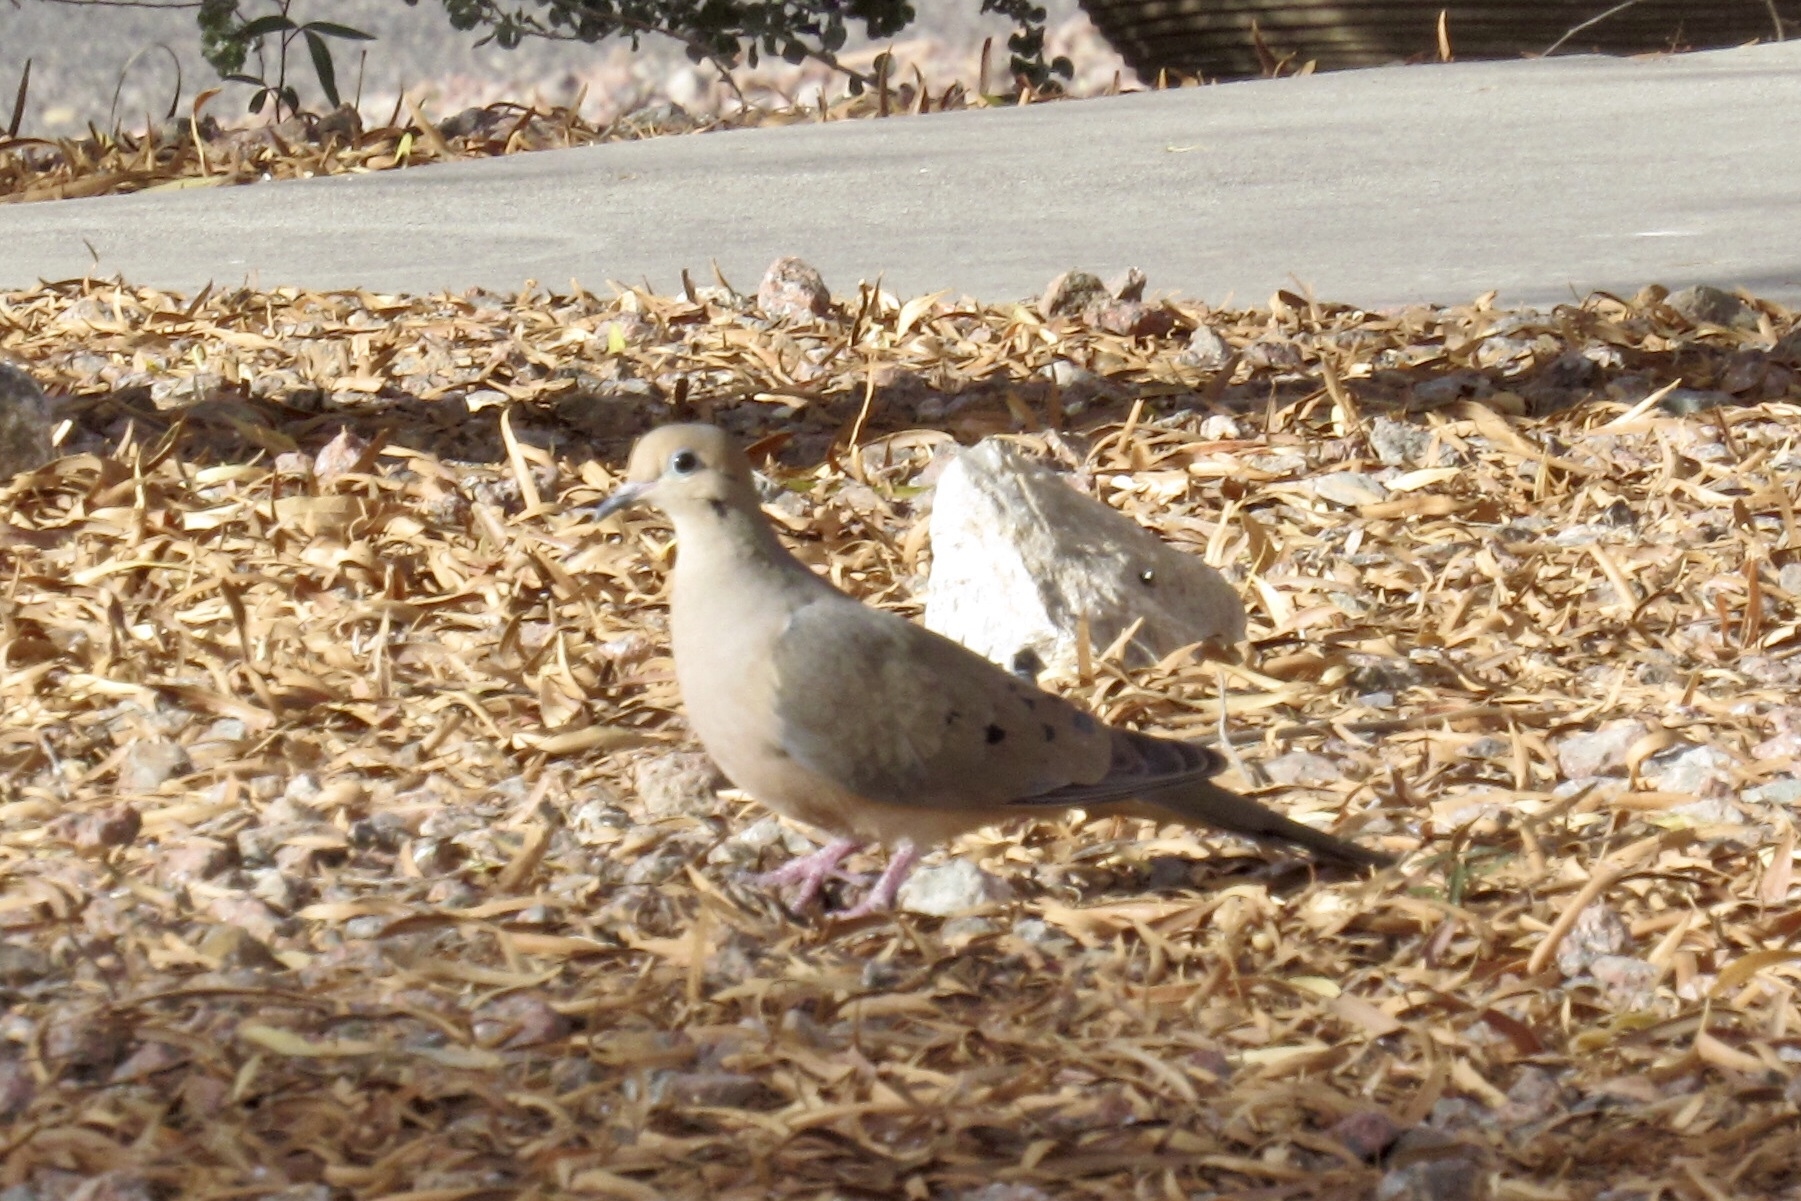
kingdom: Animalia
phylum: Chordata
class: Aves
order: Columbiformes
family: Columbidae
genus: Zenaida
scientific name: Zenaida macroura
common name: Mourning dove
